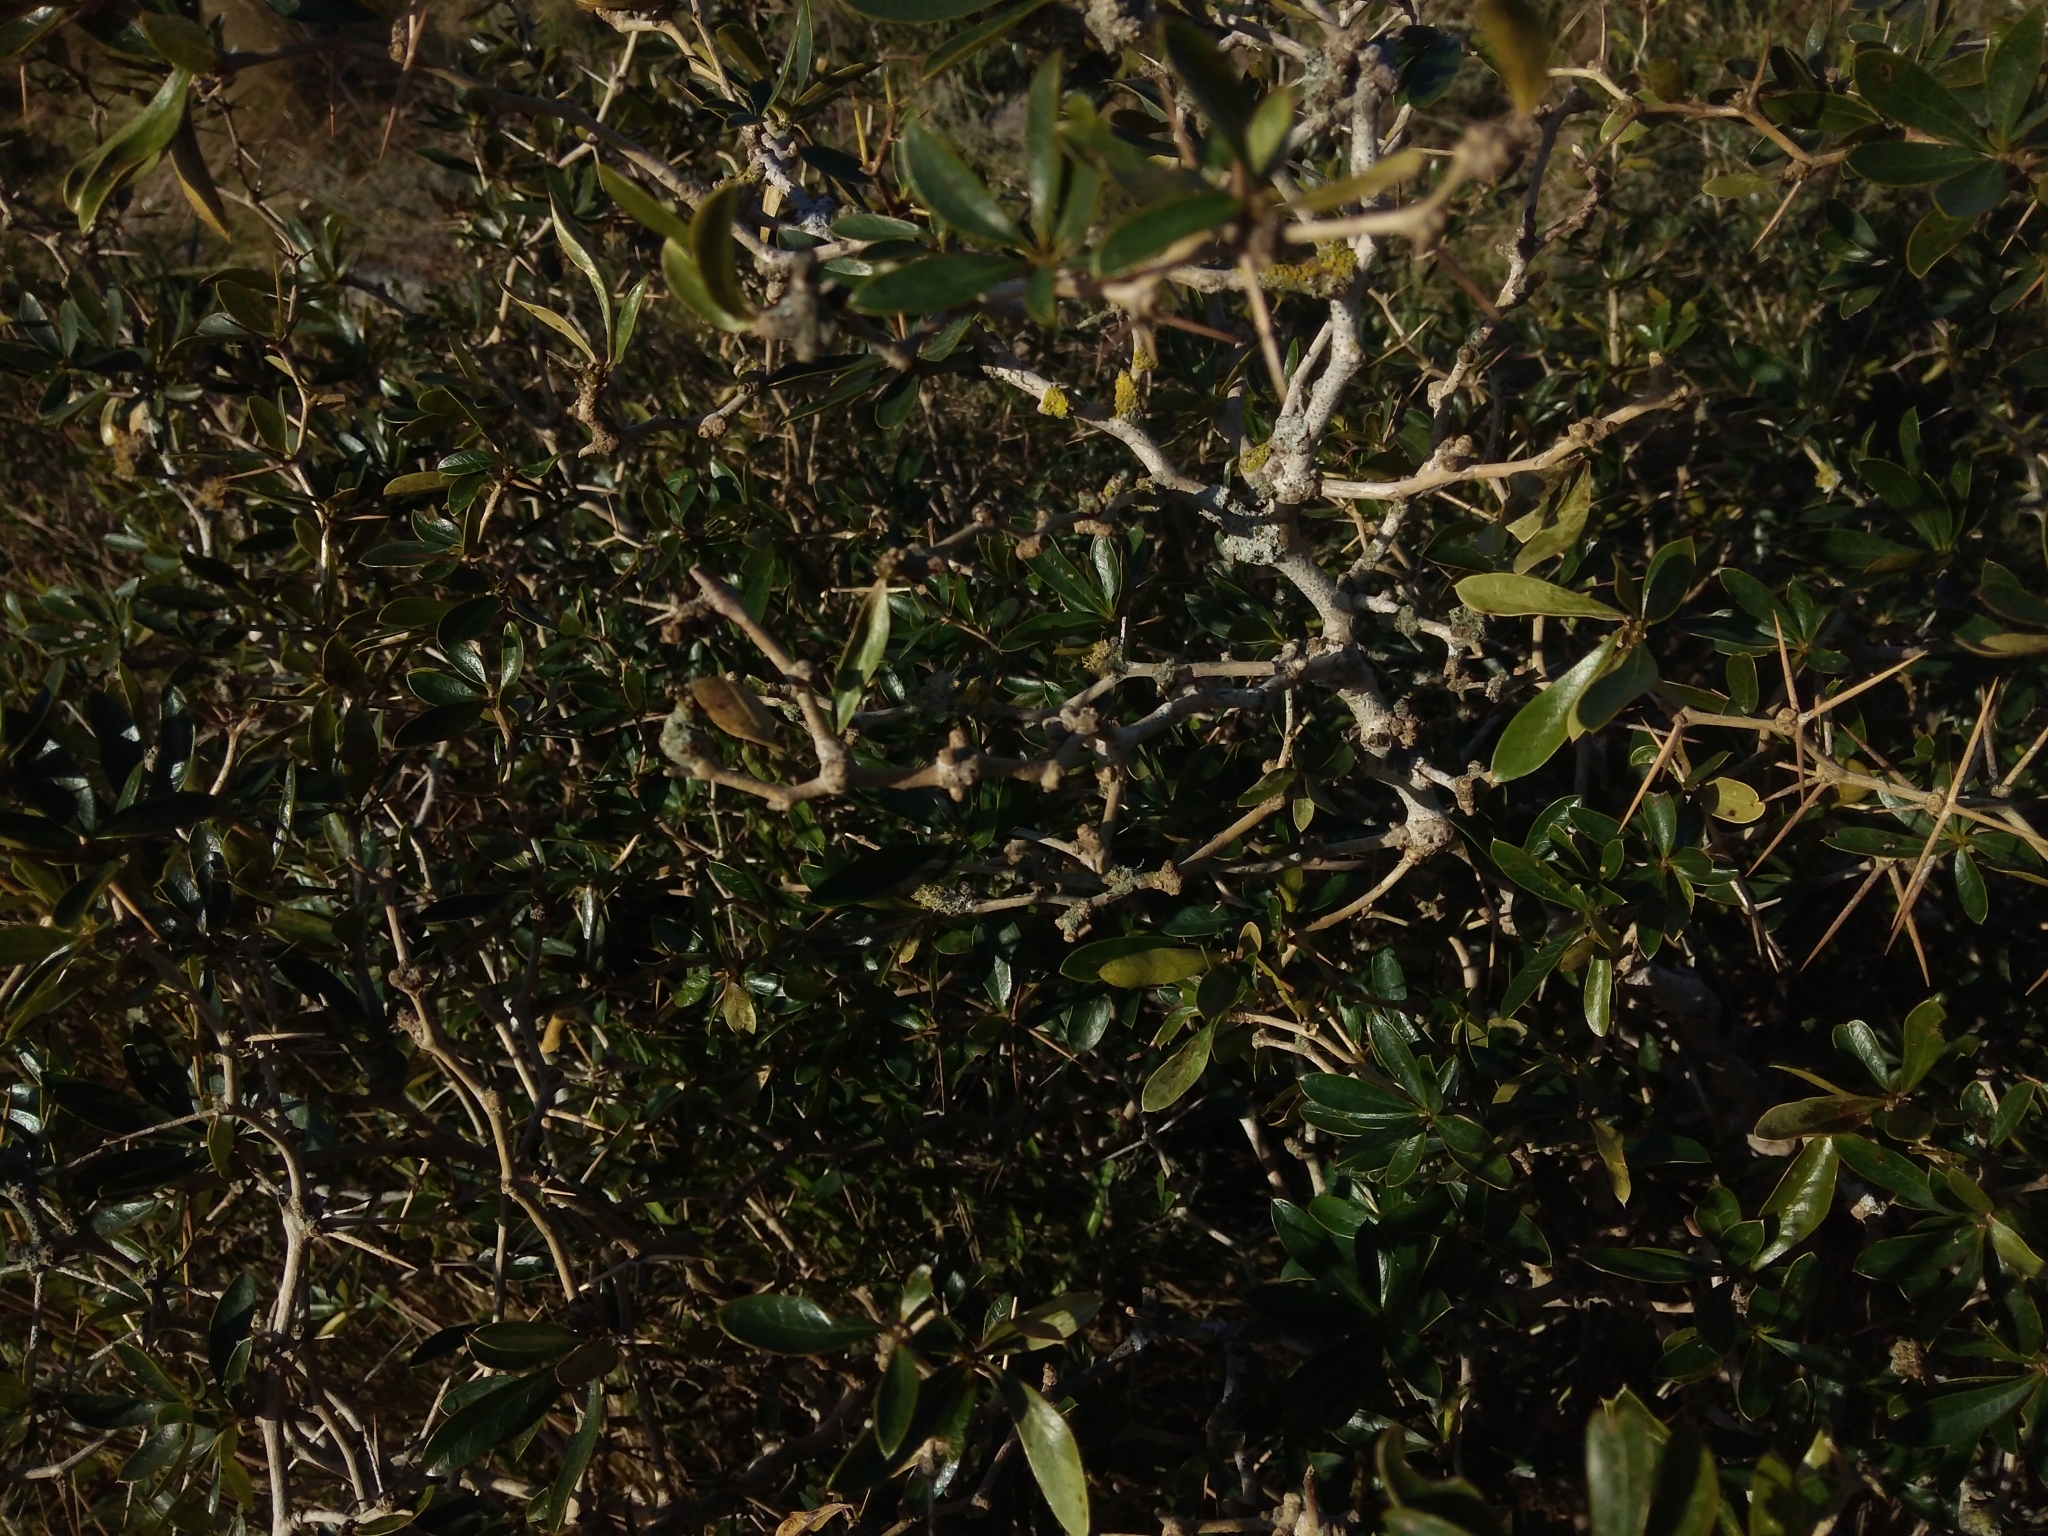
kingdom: Plantae
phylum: Tracheophyta
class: Magnoliopsida
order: Ranunculales
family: Berberidaceae
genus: Berberis
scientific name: Berberis laurina
